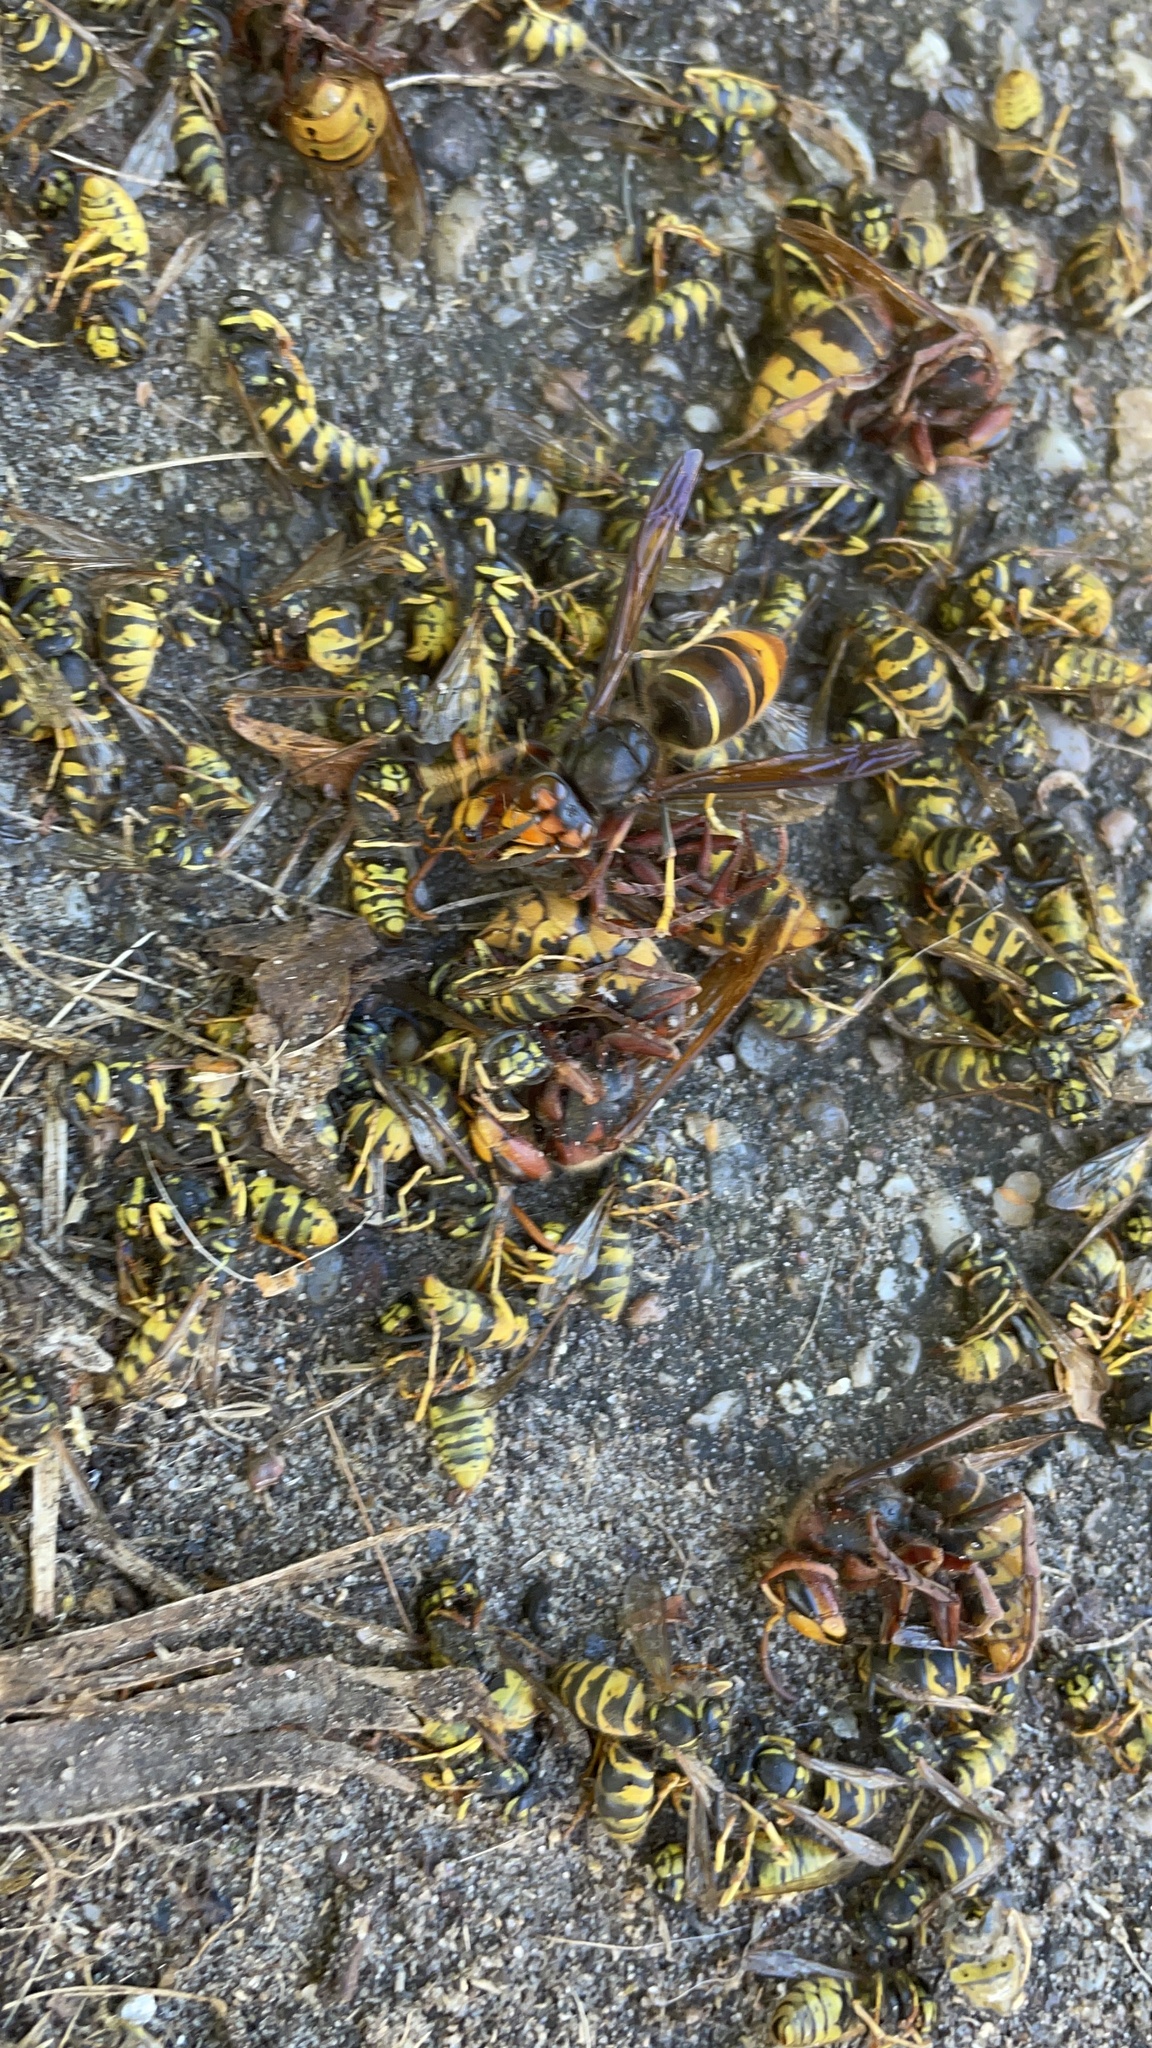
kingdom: Animalia
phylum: Arthropoda
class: Insecta
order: Hymenoptera
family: Vespidae
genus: Vespa
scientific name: Vespa velutina
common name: Asian hornet
